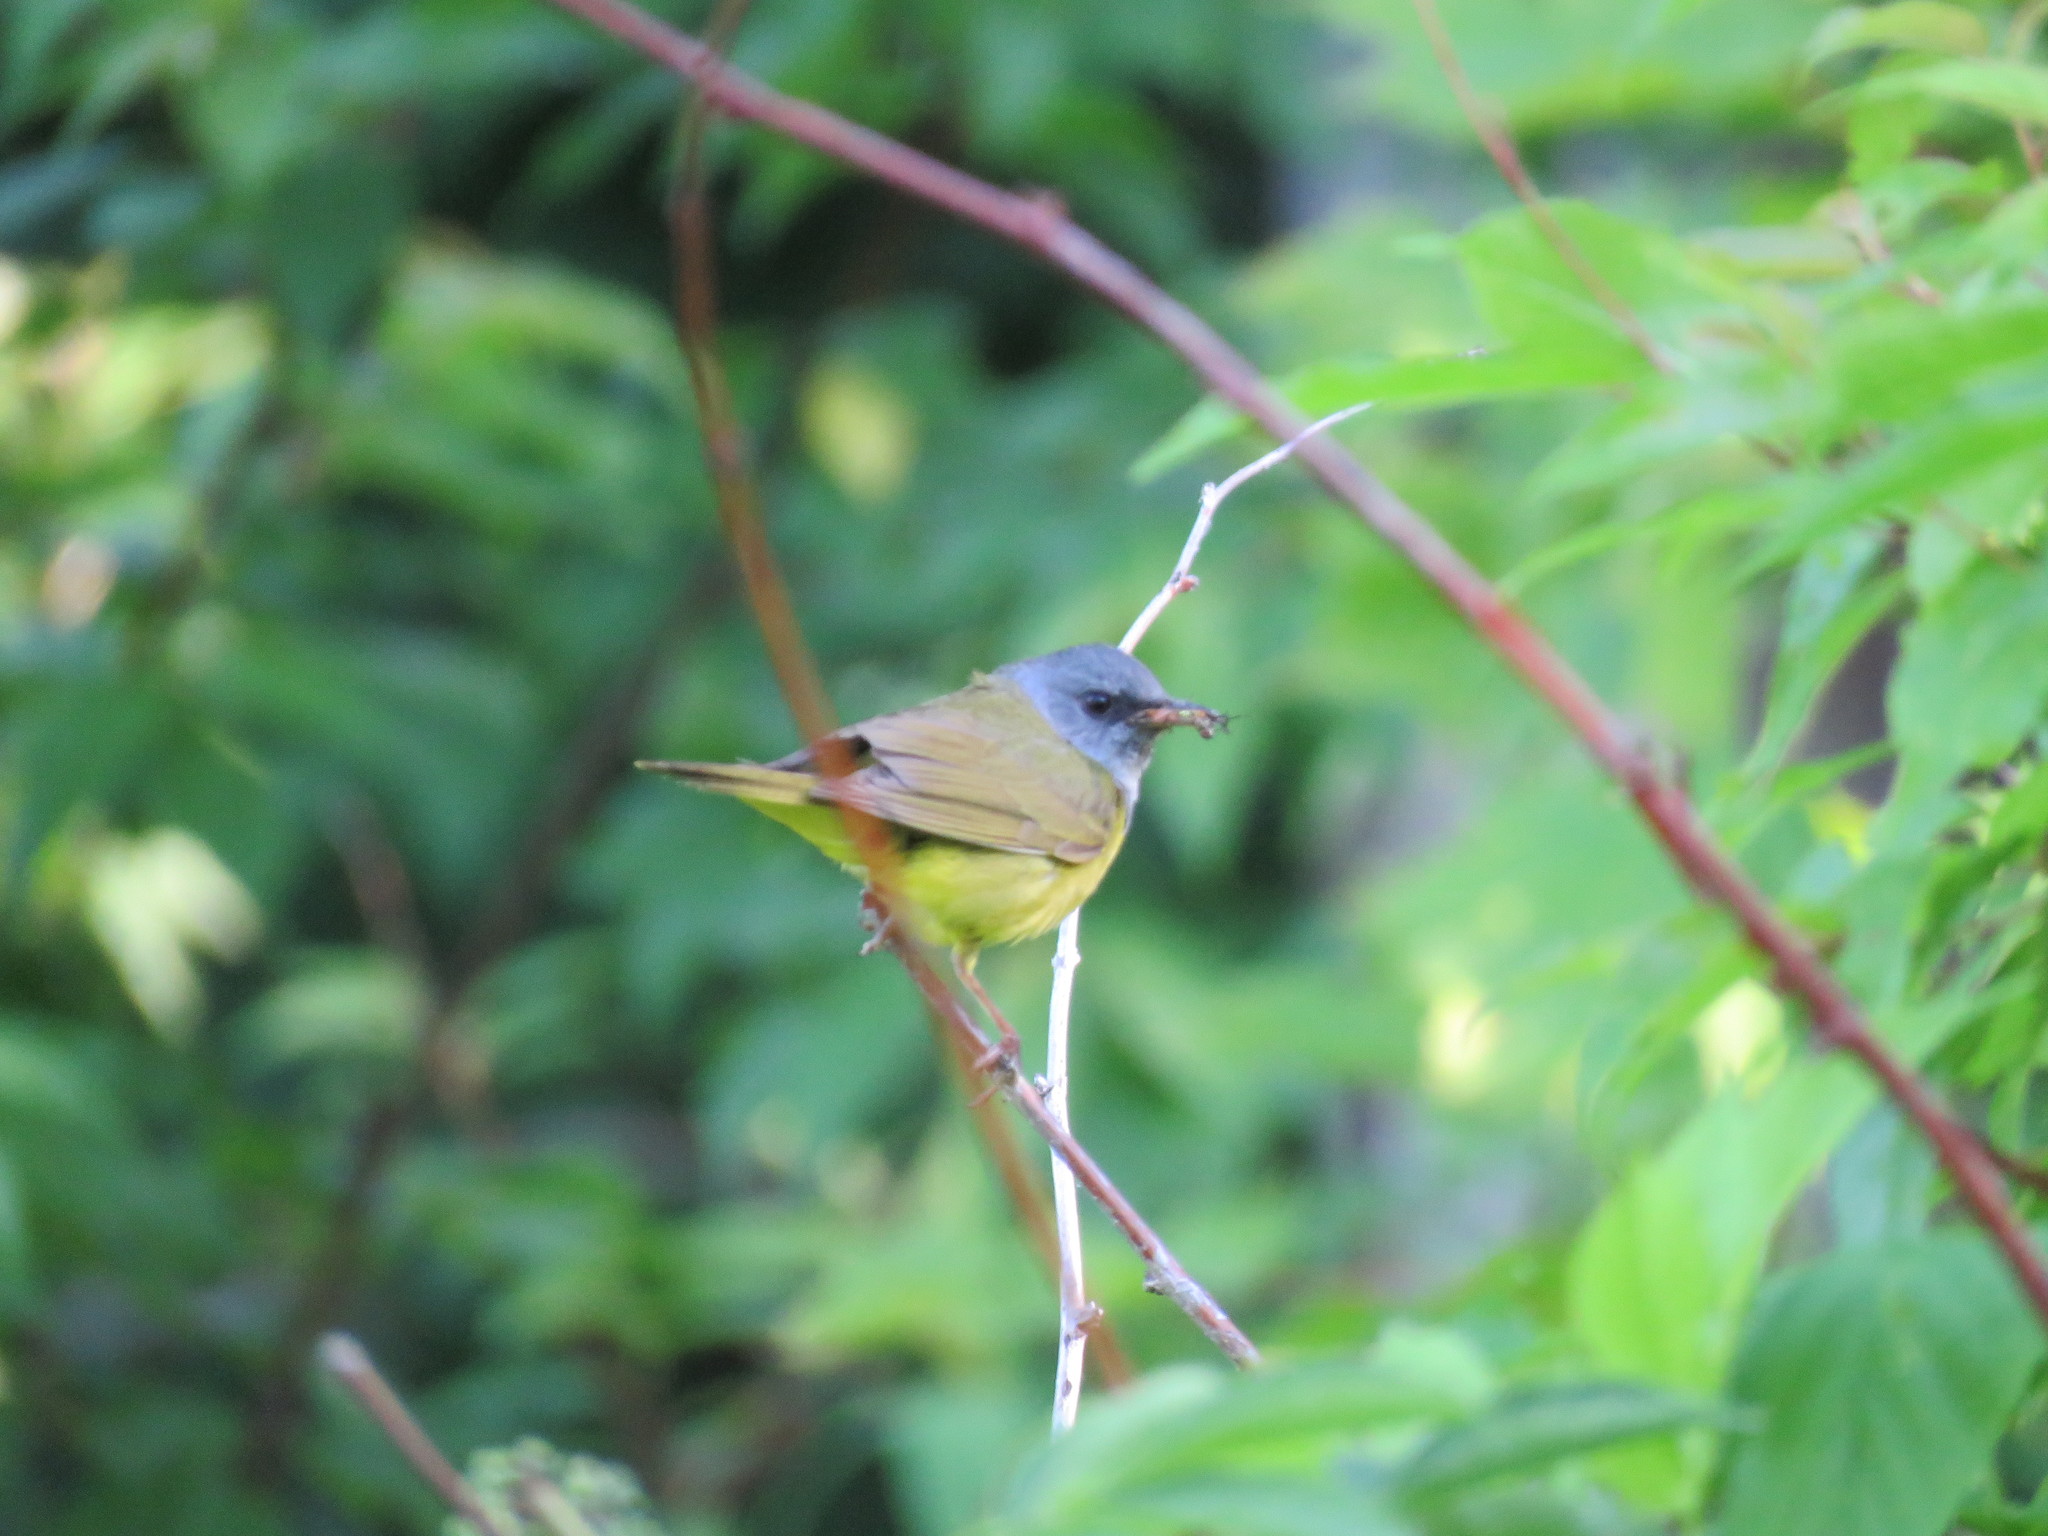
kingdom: Animalia
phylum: Chordata
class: Aves
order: Passeriformes
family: Parulidae
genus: Geothlypis
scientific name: Geothlypis philadelphia
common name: Mourning warbler
